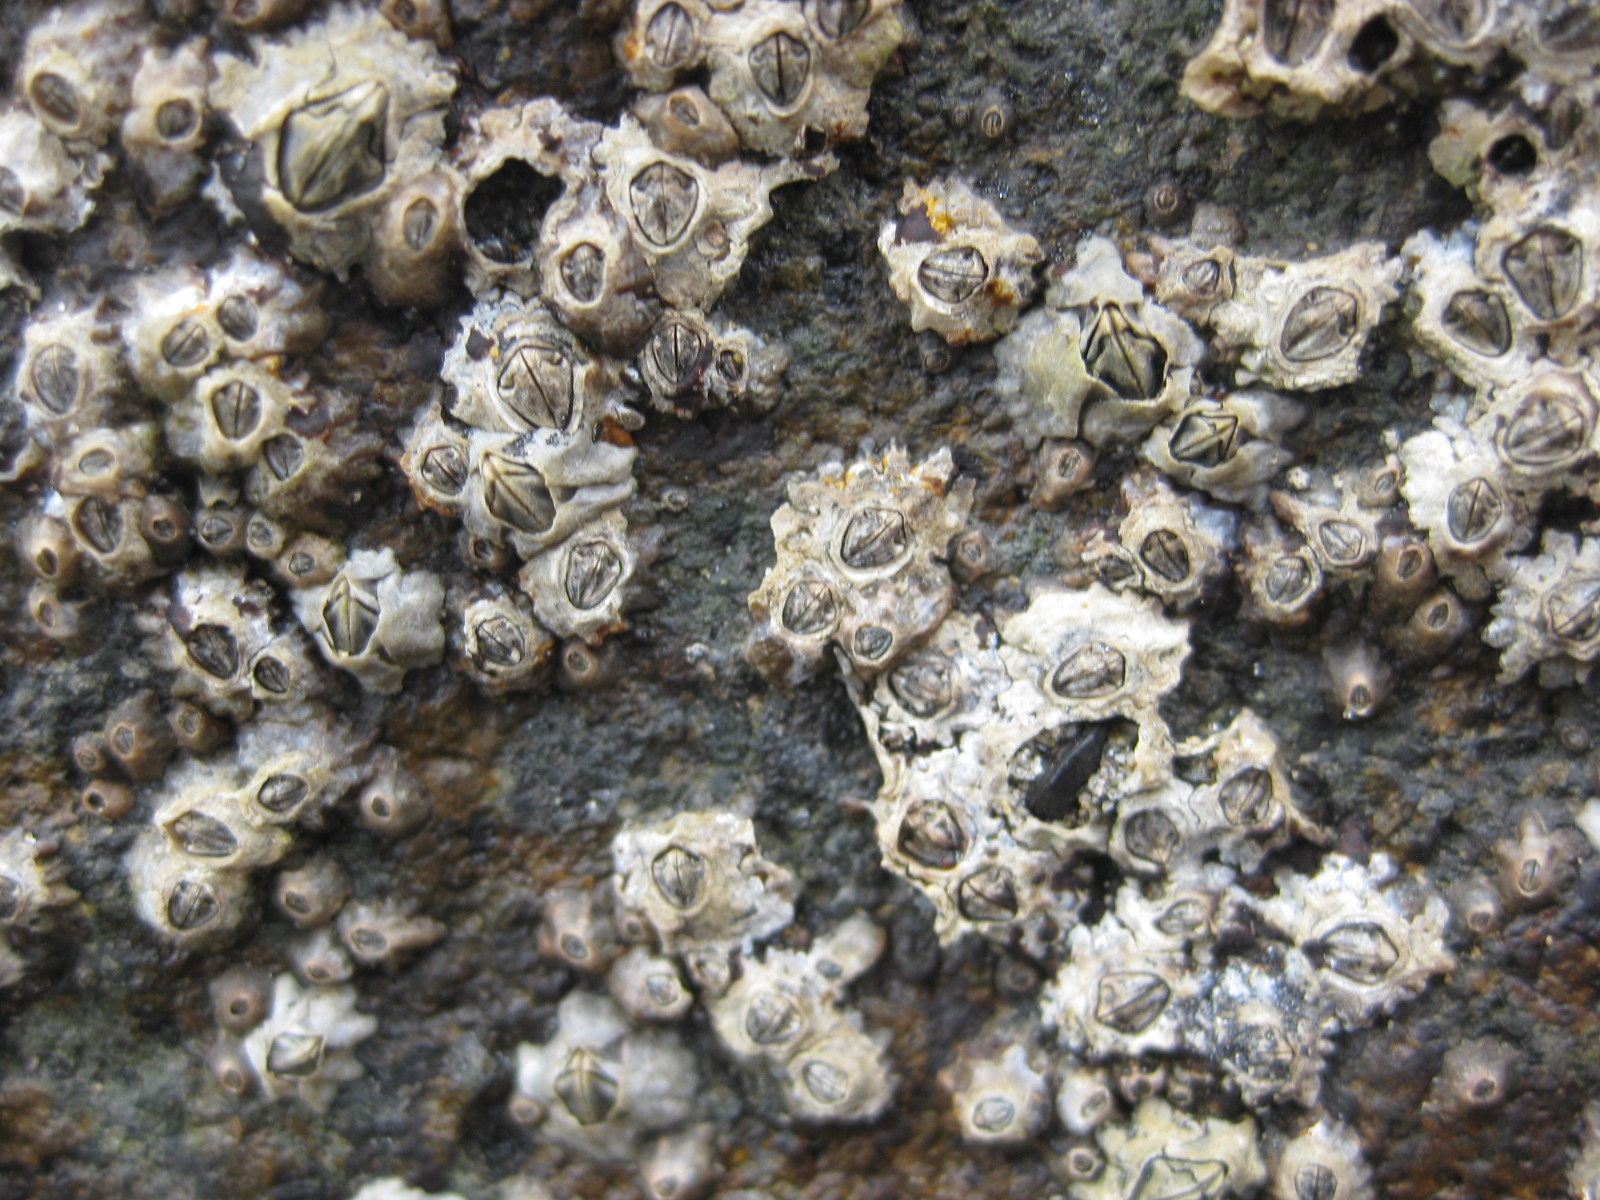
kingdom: Animalia
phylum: Arthropoda
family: Elminiidae
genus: Austrominius
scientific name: Austrominius modestus
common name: Australasian barnacle
